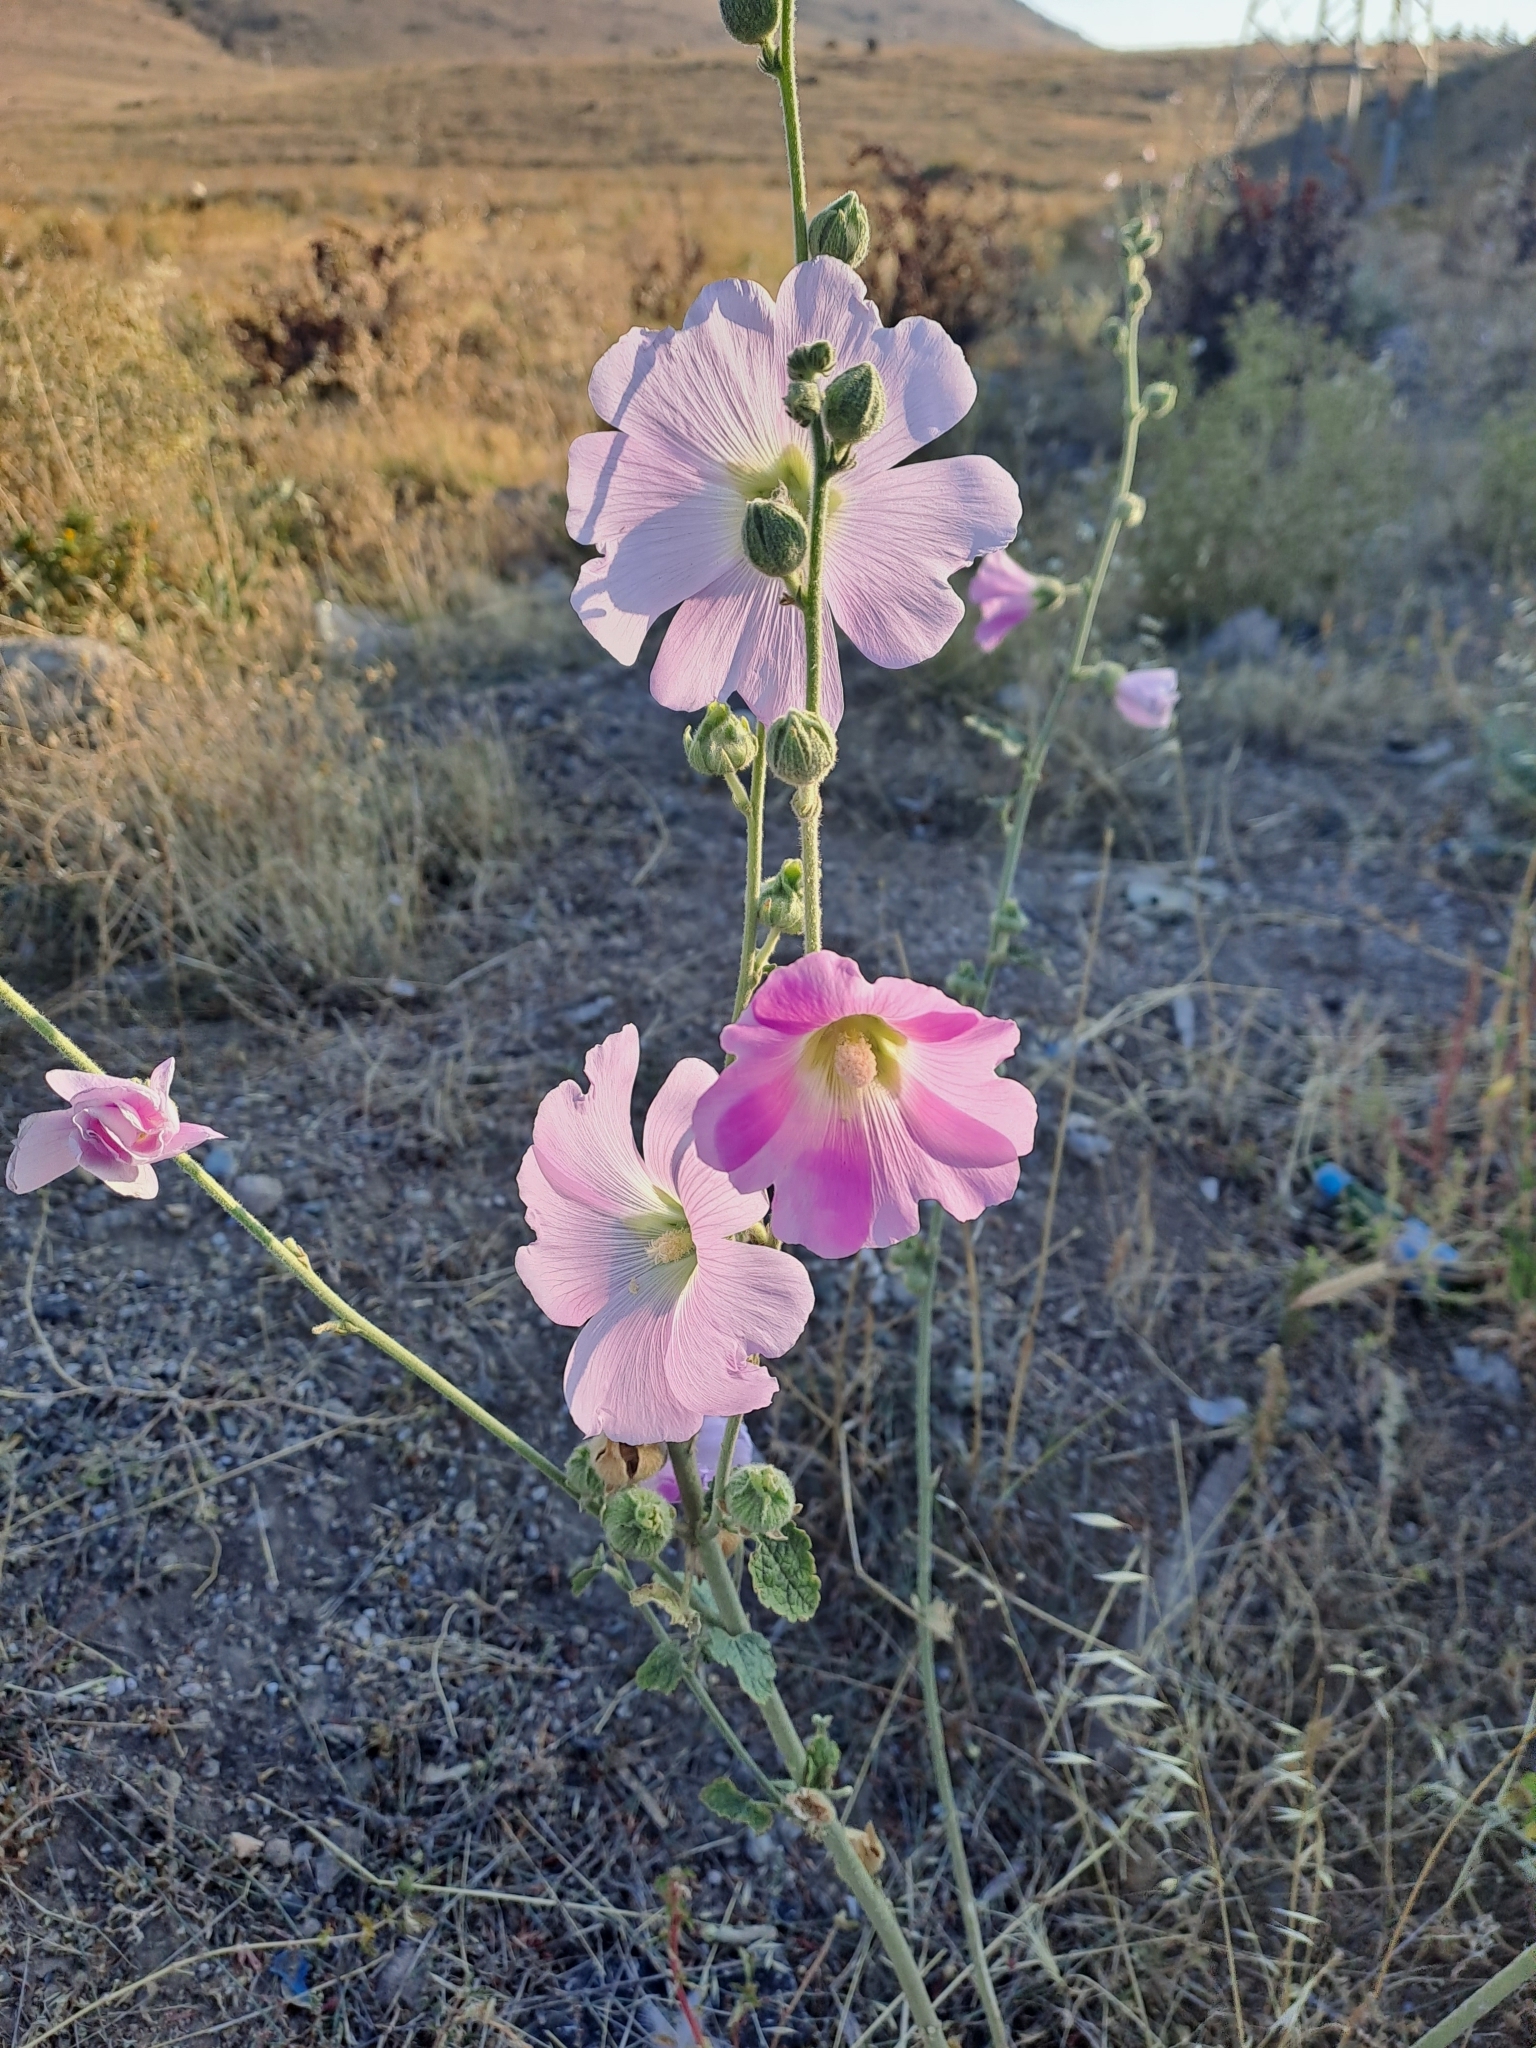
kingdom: Plantae
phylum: Tracheophyta
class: Magnoliopsida
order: Malvales
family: Malvaceae
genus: Alcea
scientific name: Alcea pallida
